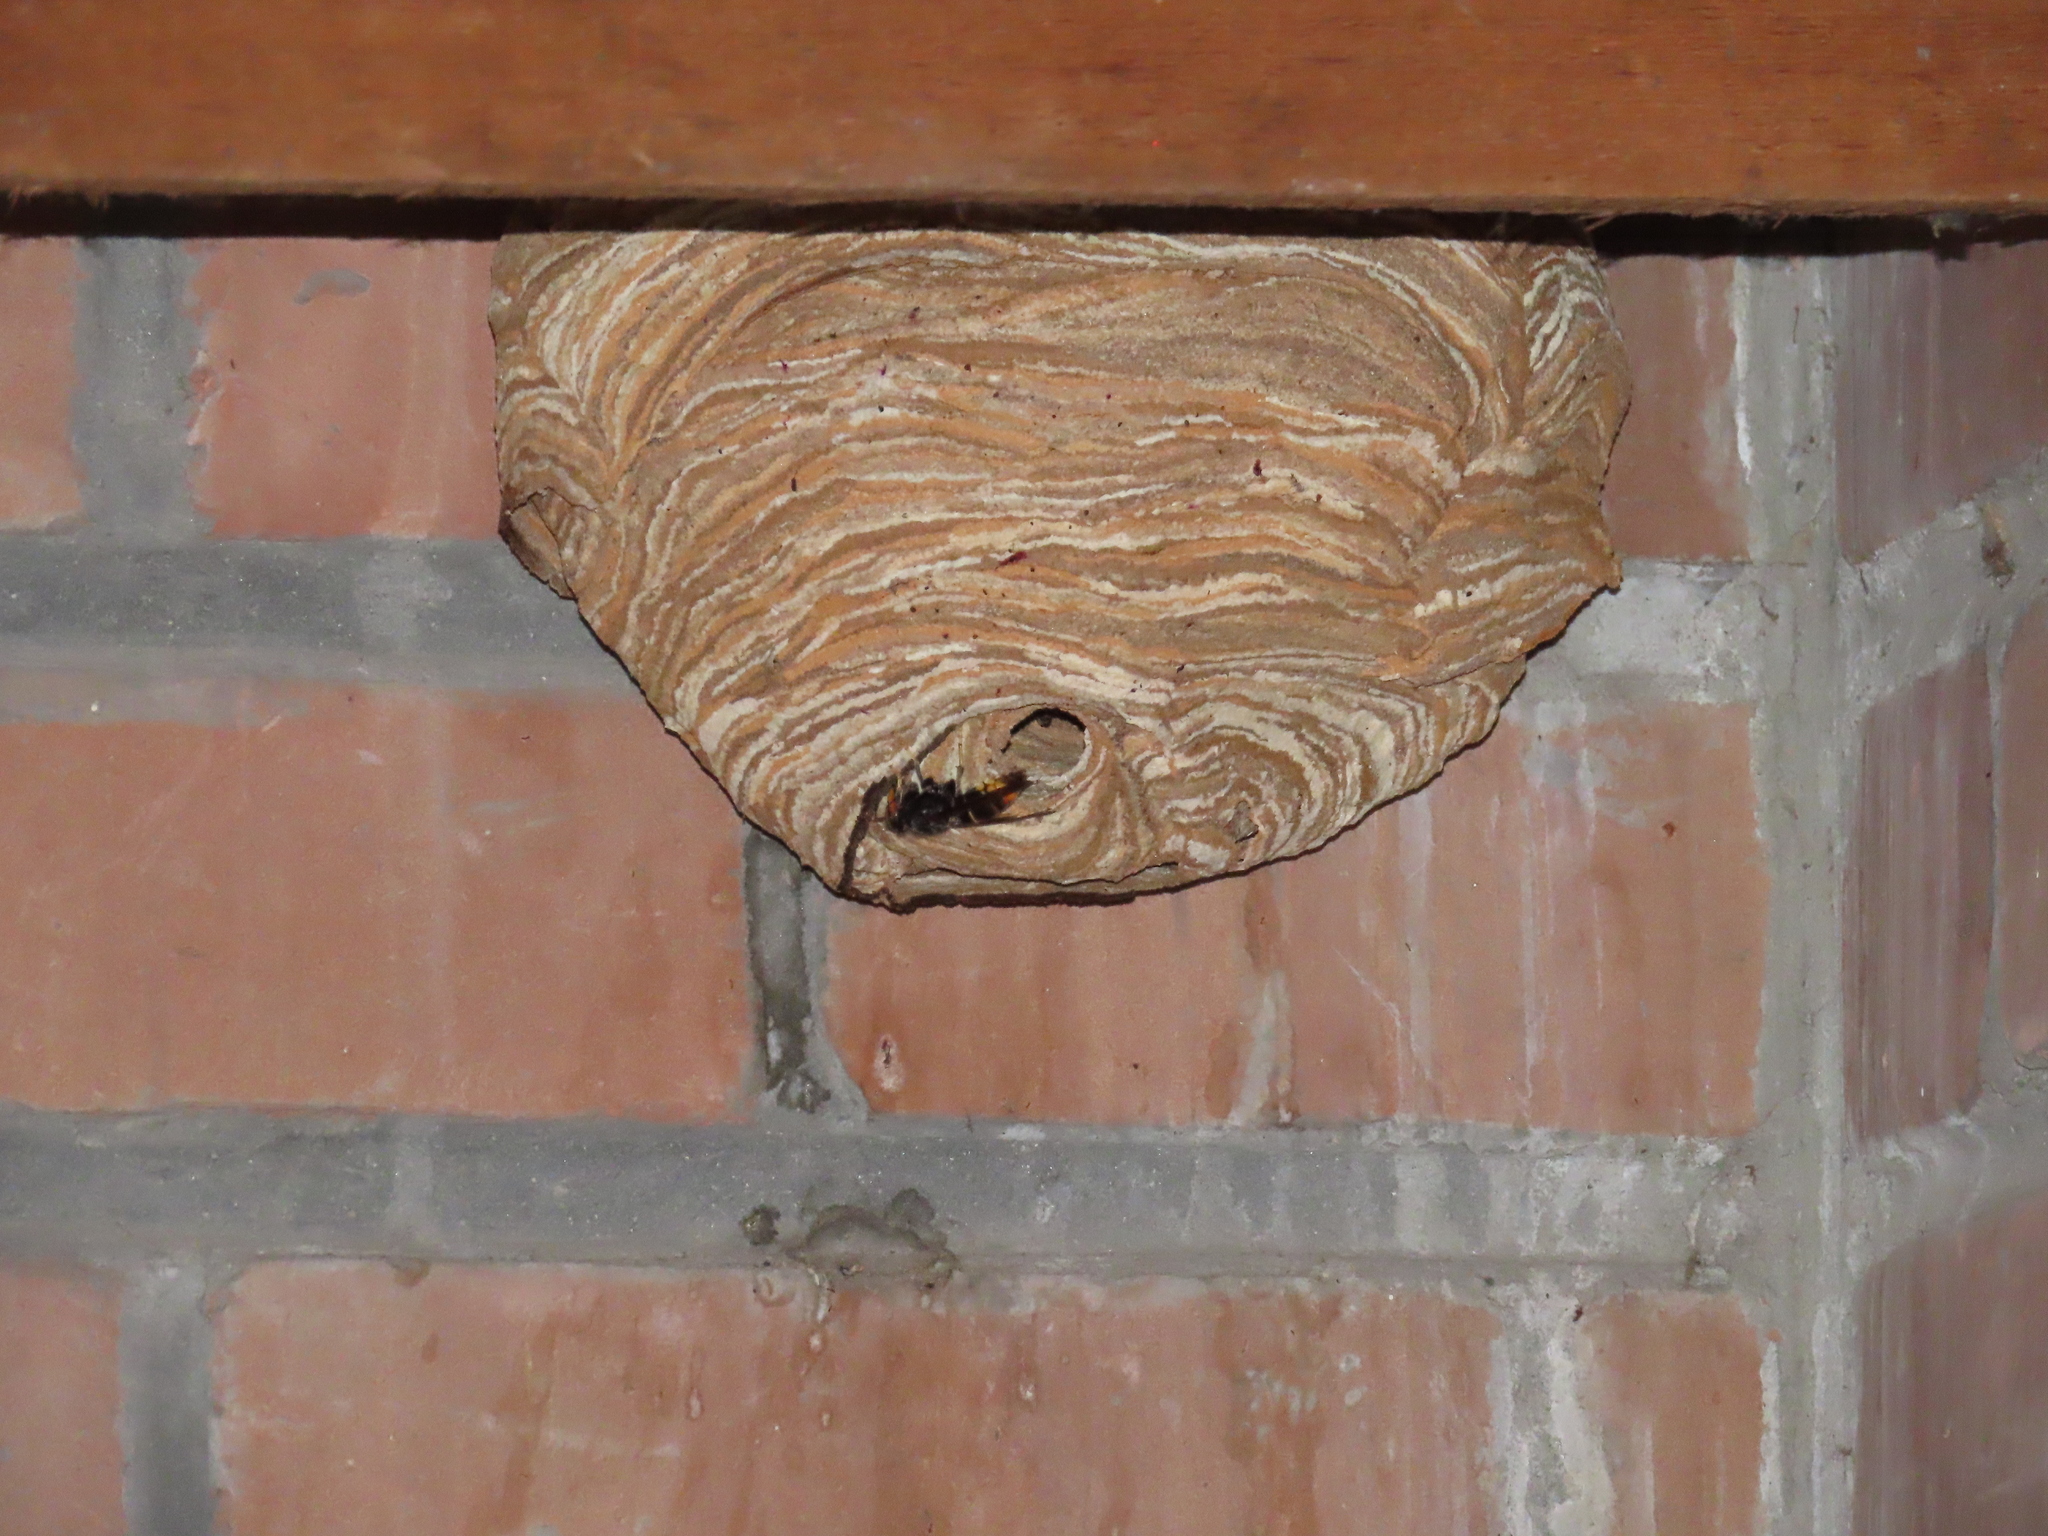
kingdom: Animalia
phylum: Arthropoda
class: Insecta
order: Hymenoptera
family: Vespidae
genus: Vespa
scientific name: Vespa velutina
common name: Asian hornet
